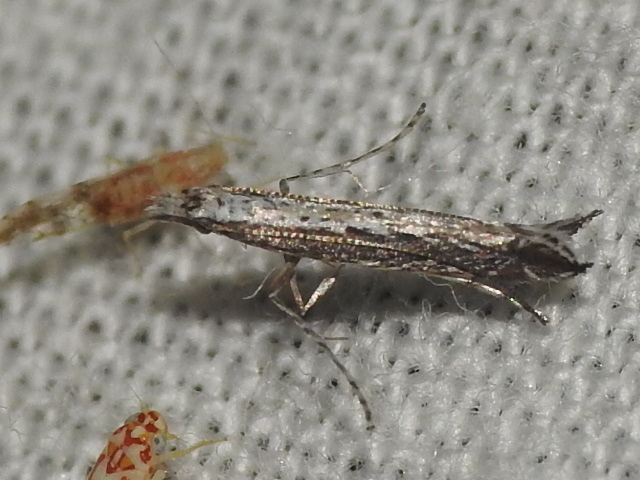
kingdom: Plantae
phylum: Rhodophyta
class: Florideophyceae
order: Gracilariales
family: Gracilariaceae
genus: Gracilaria
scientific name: Gracilaria
